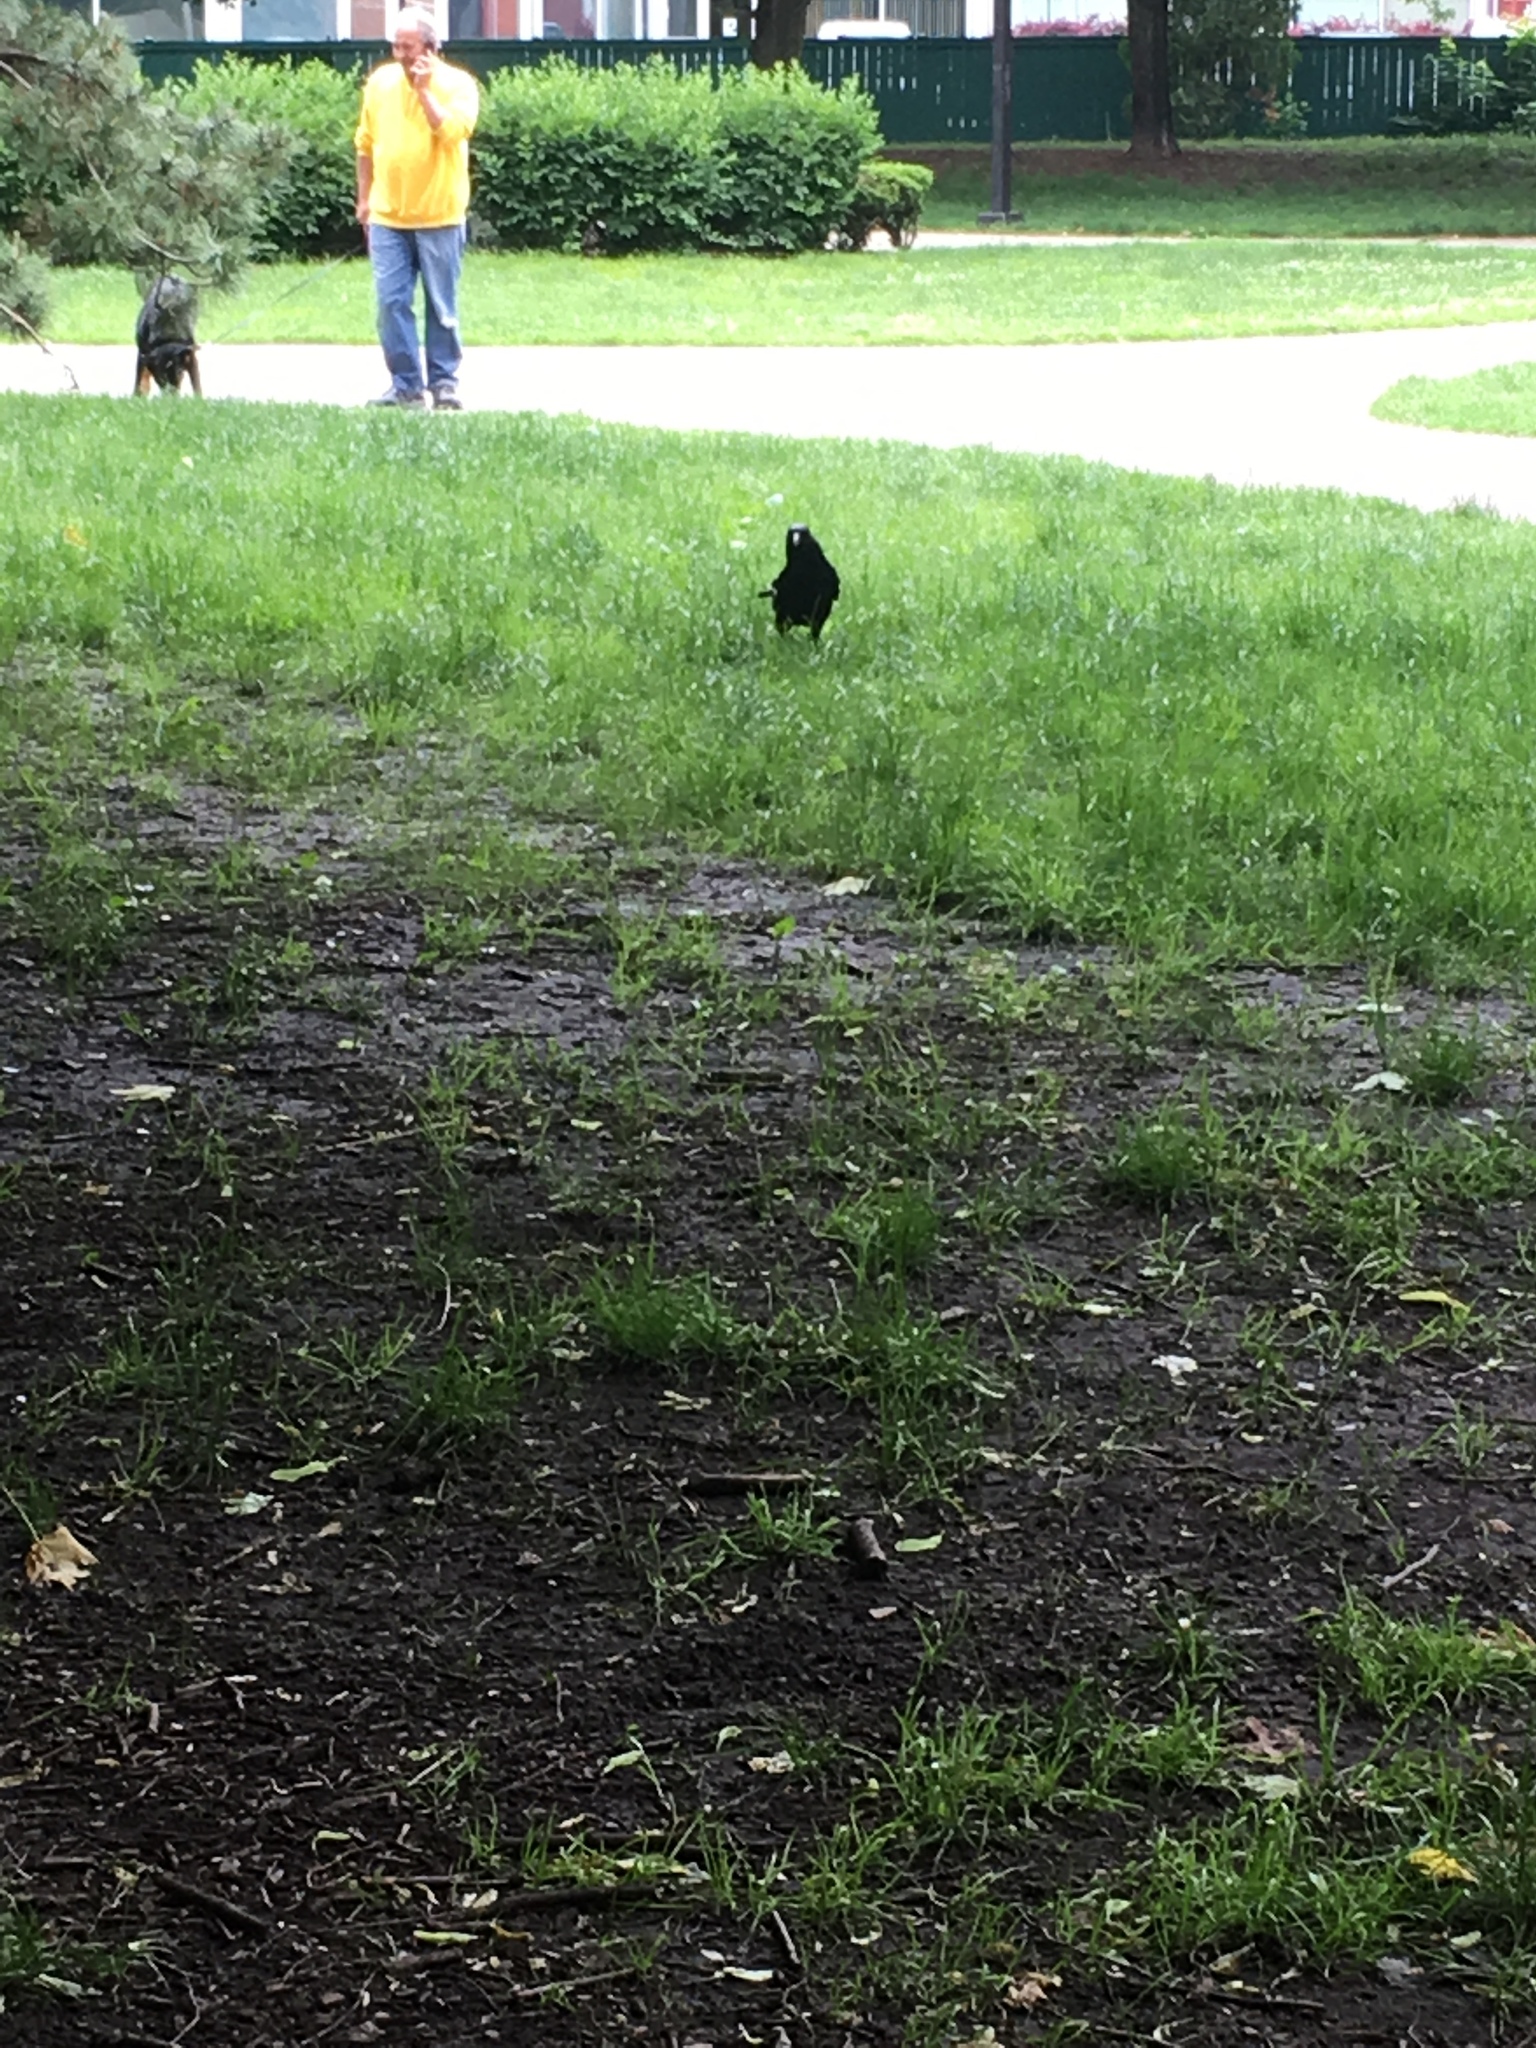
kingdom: Animalia
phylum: Chordata
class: Aves
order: Passeriformes
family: Corvidae
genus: Corvus
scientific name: Corvus brachyrhynchos
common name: American crow
